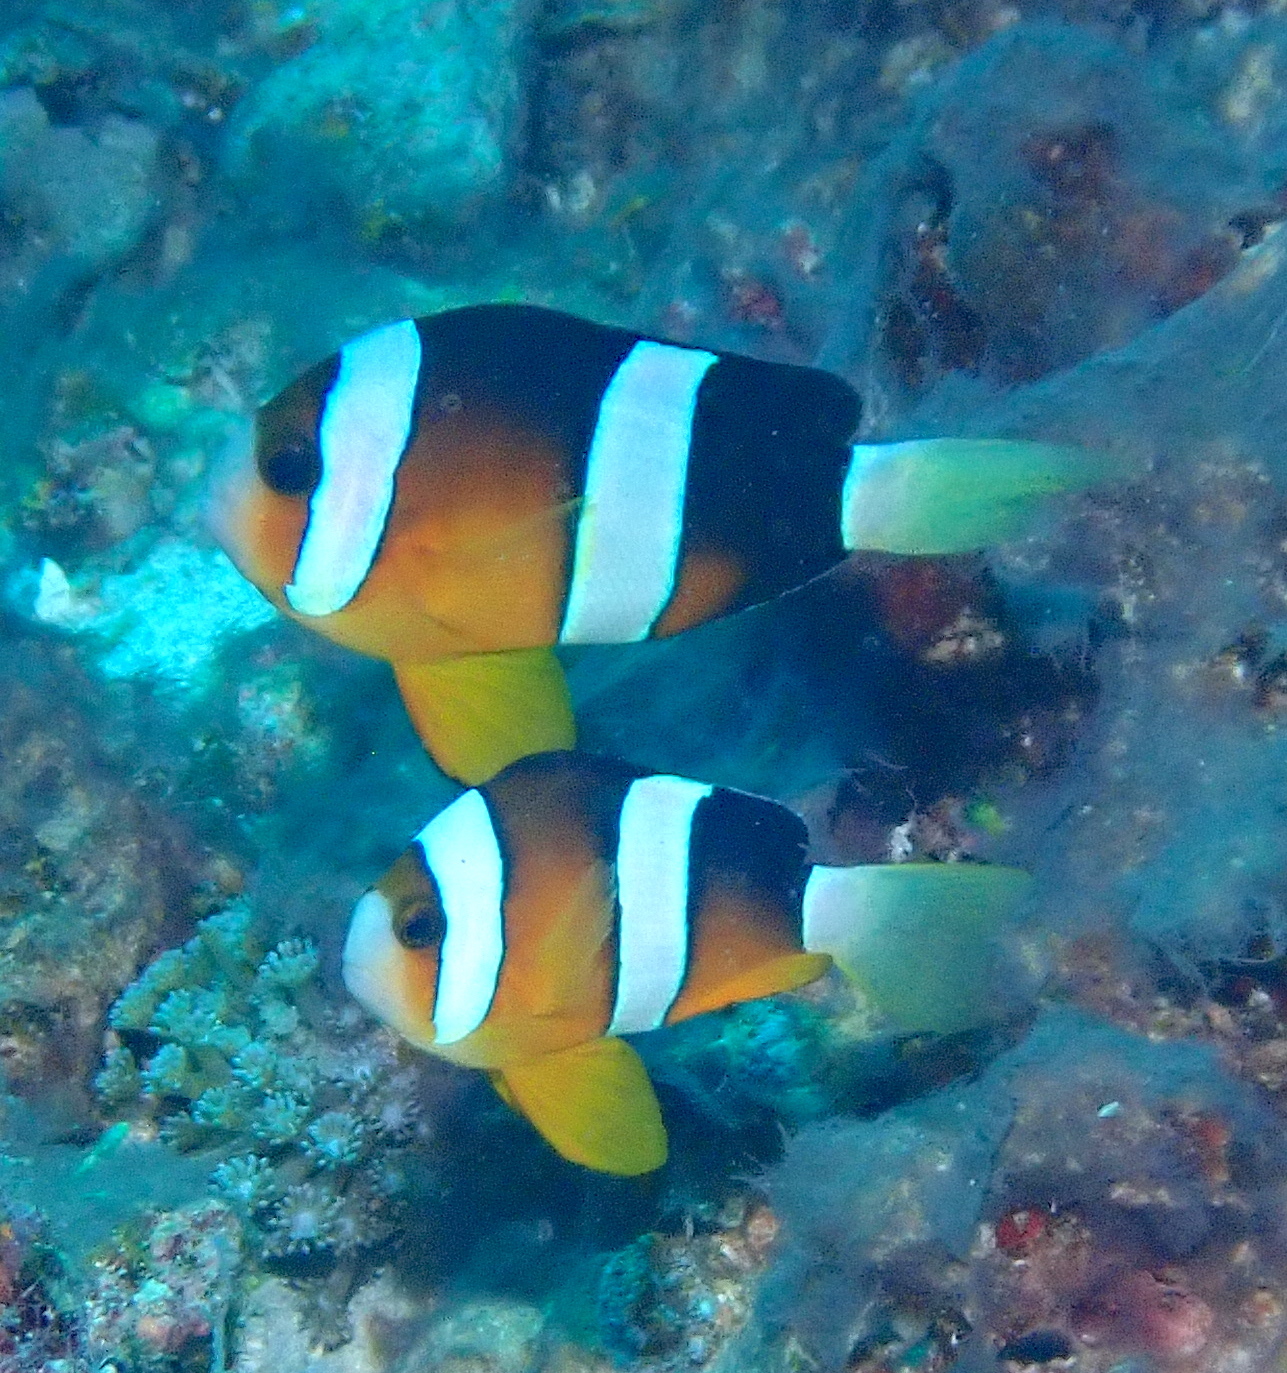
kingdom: Animalia
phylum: Chordata
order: Perciformes
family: Pomacentridae
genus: Amphiprion
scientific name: Amphiprion clarkii
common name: Clark's anemonefish
